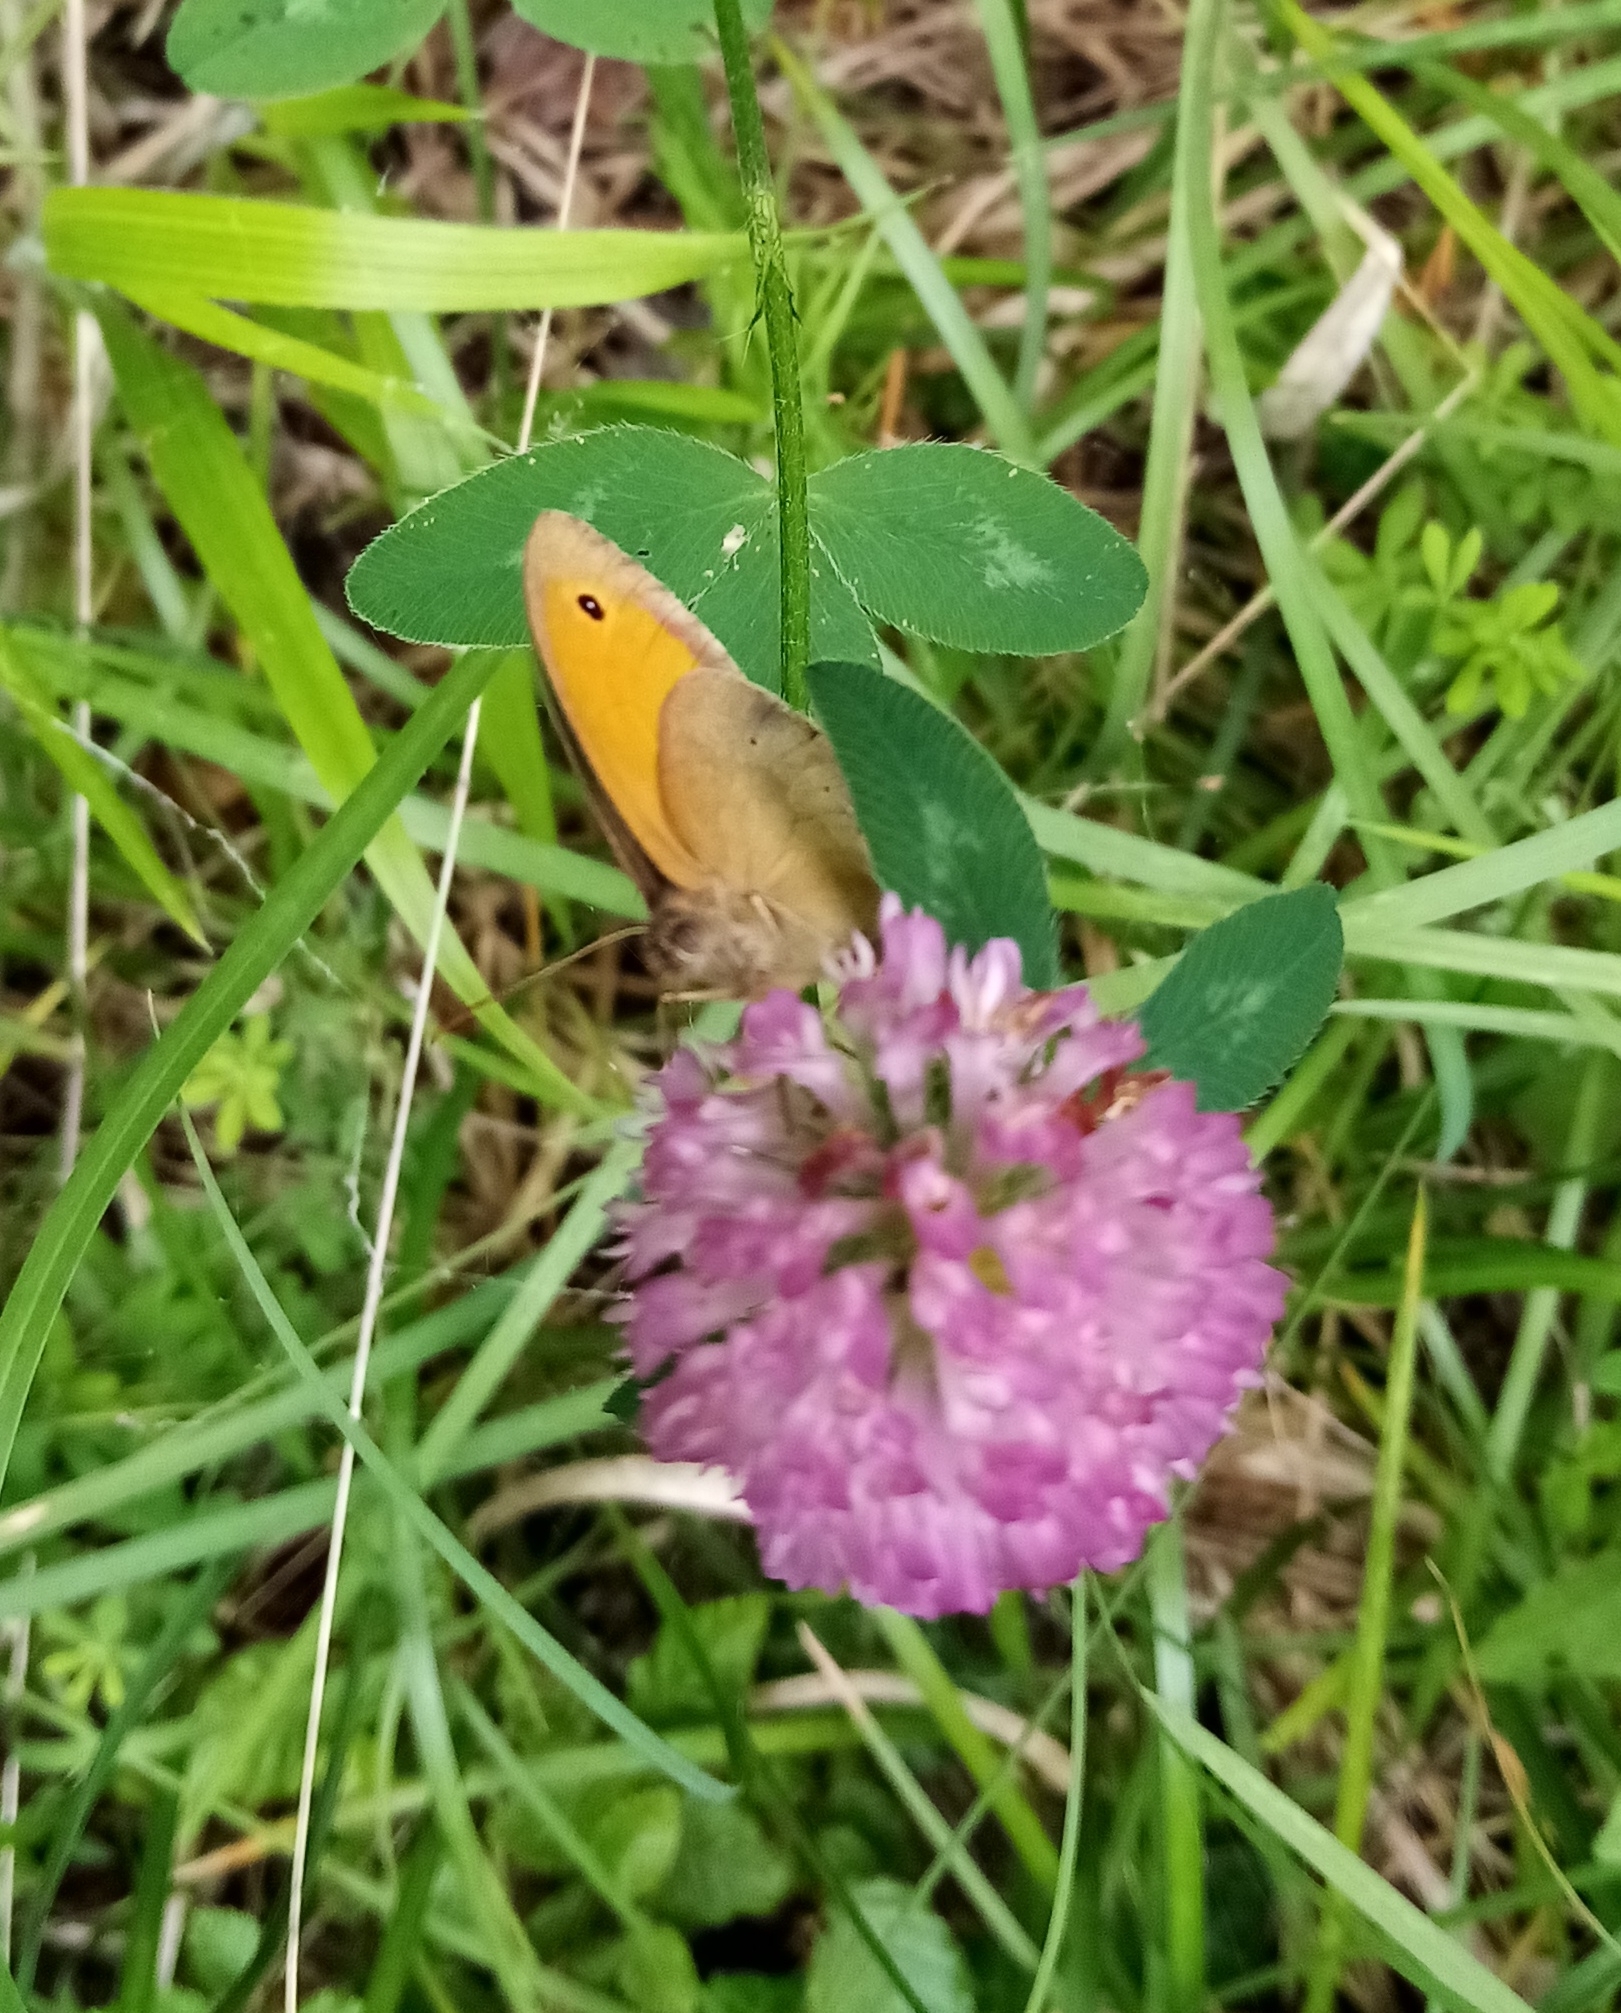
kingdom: Animalia
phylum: Arthropoda
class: Insecta
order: Lepidoptera
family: Nymphalidae
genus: Maniola
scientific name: Maniola jurtina
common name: Meadow brown
